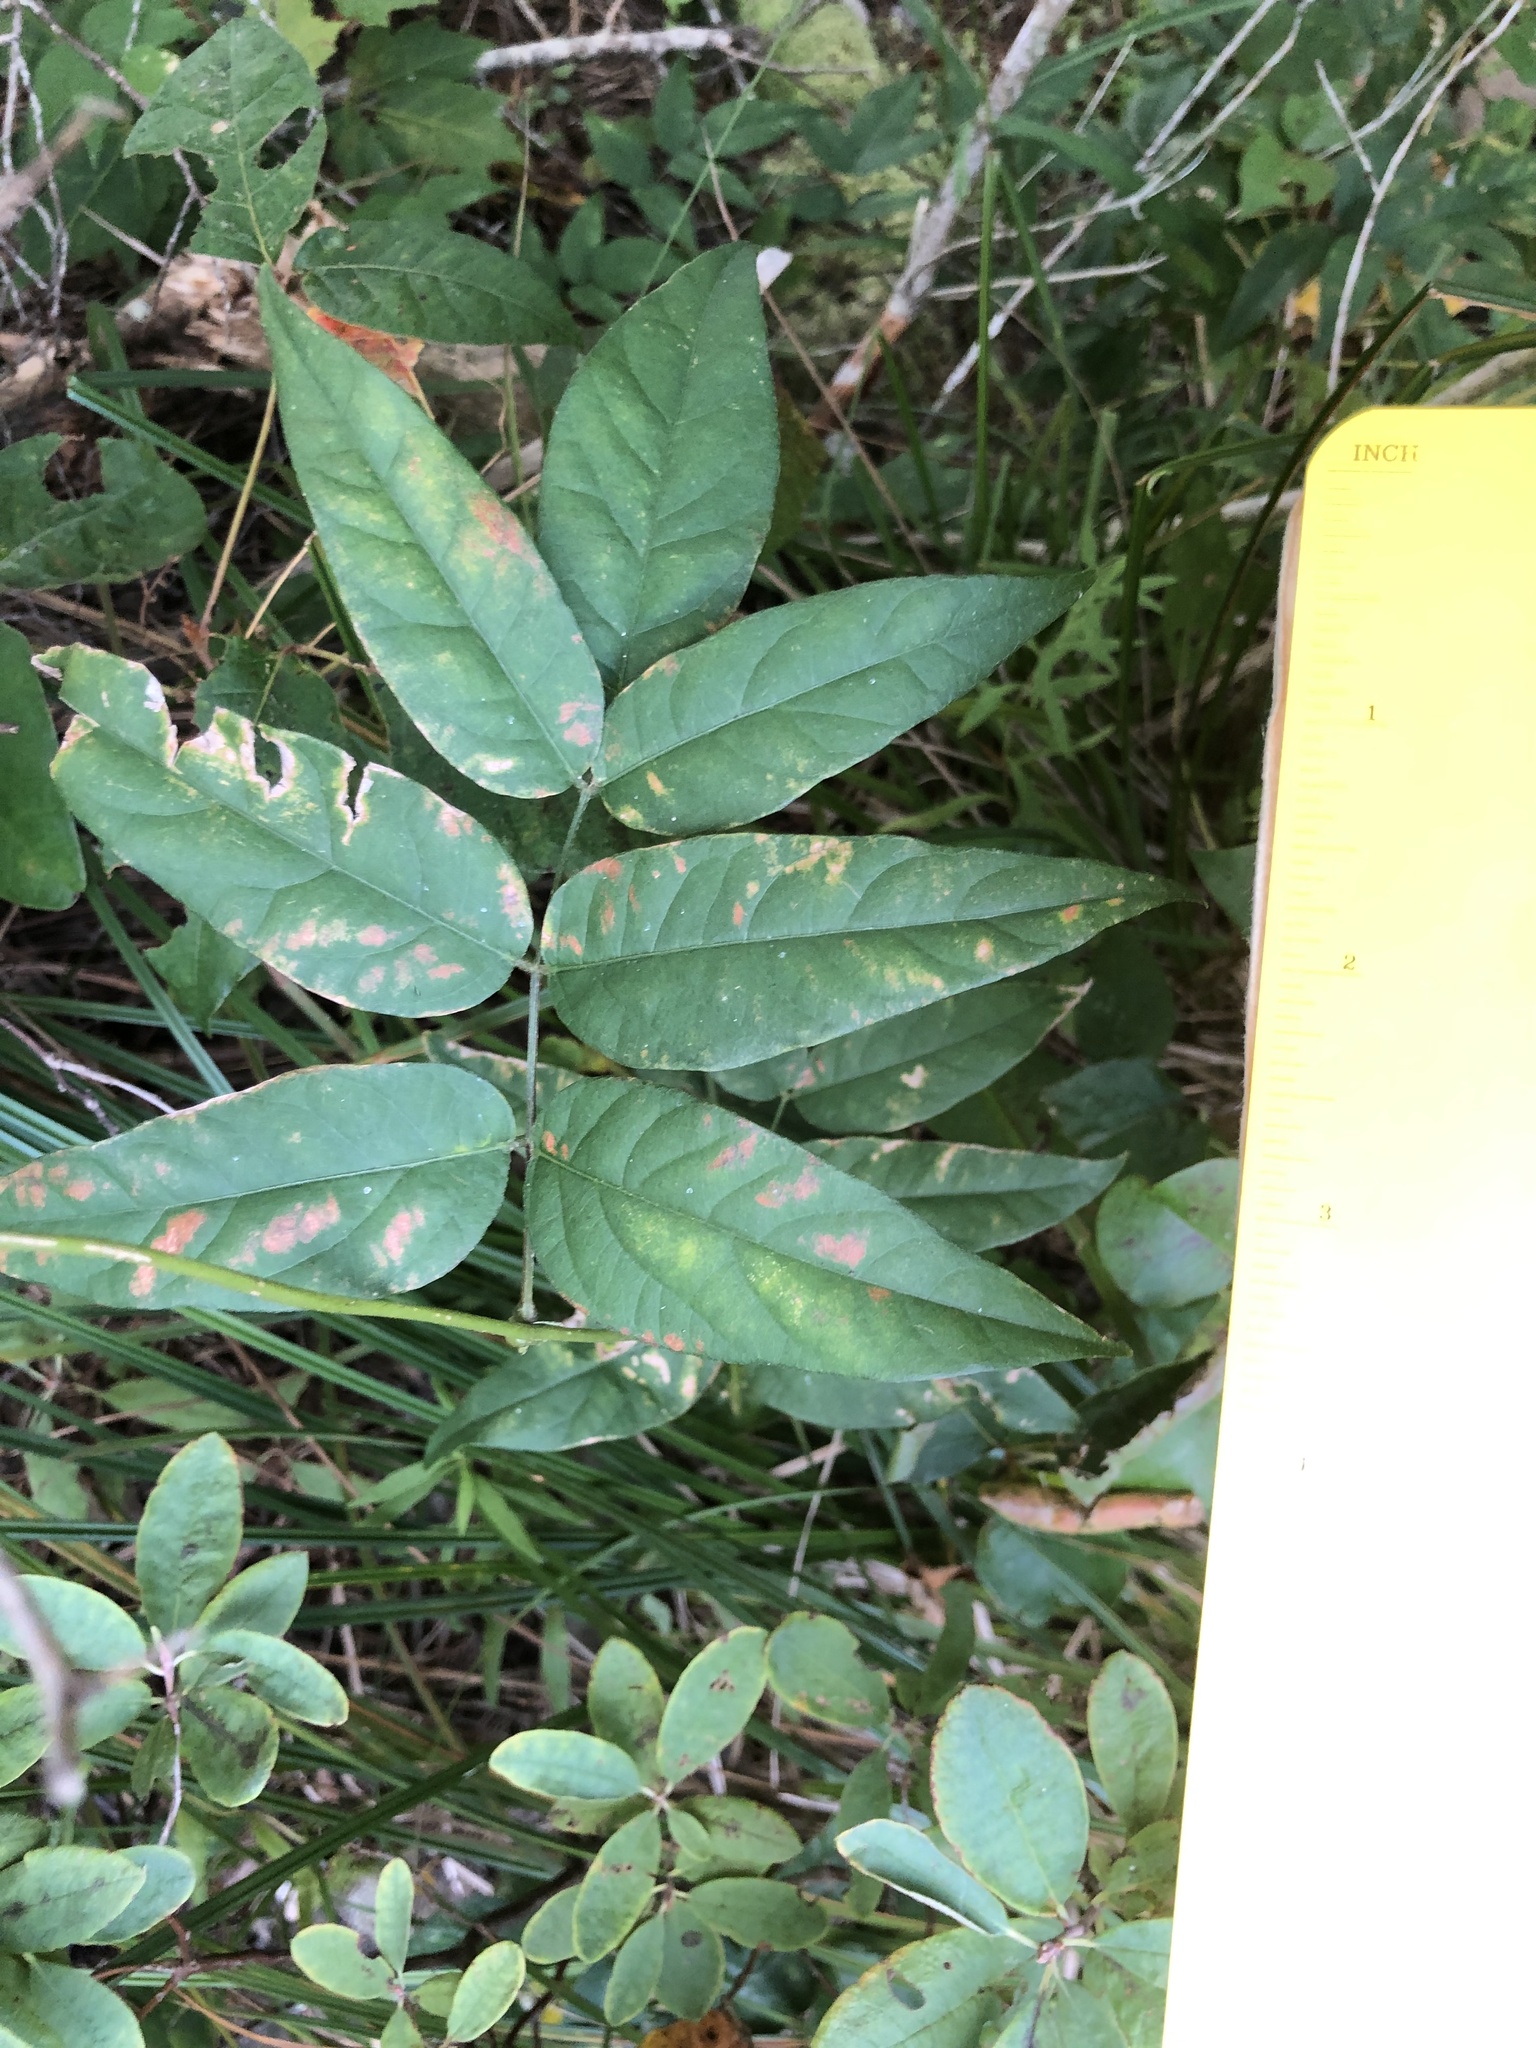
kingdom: Plantae
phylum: Tracheophyta
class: Magnoliopsida
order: Fabales
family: Fabaceae
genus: Apios
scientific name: Apios americana
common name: American potato-bean
